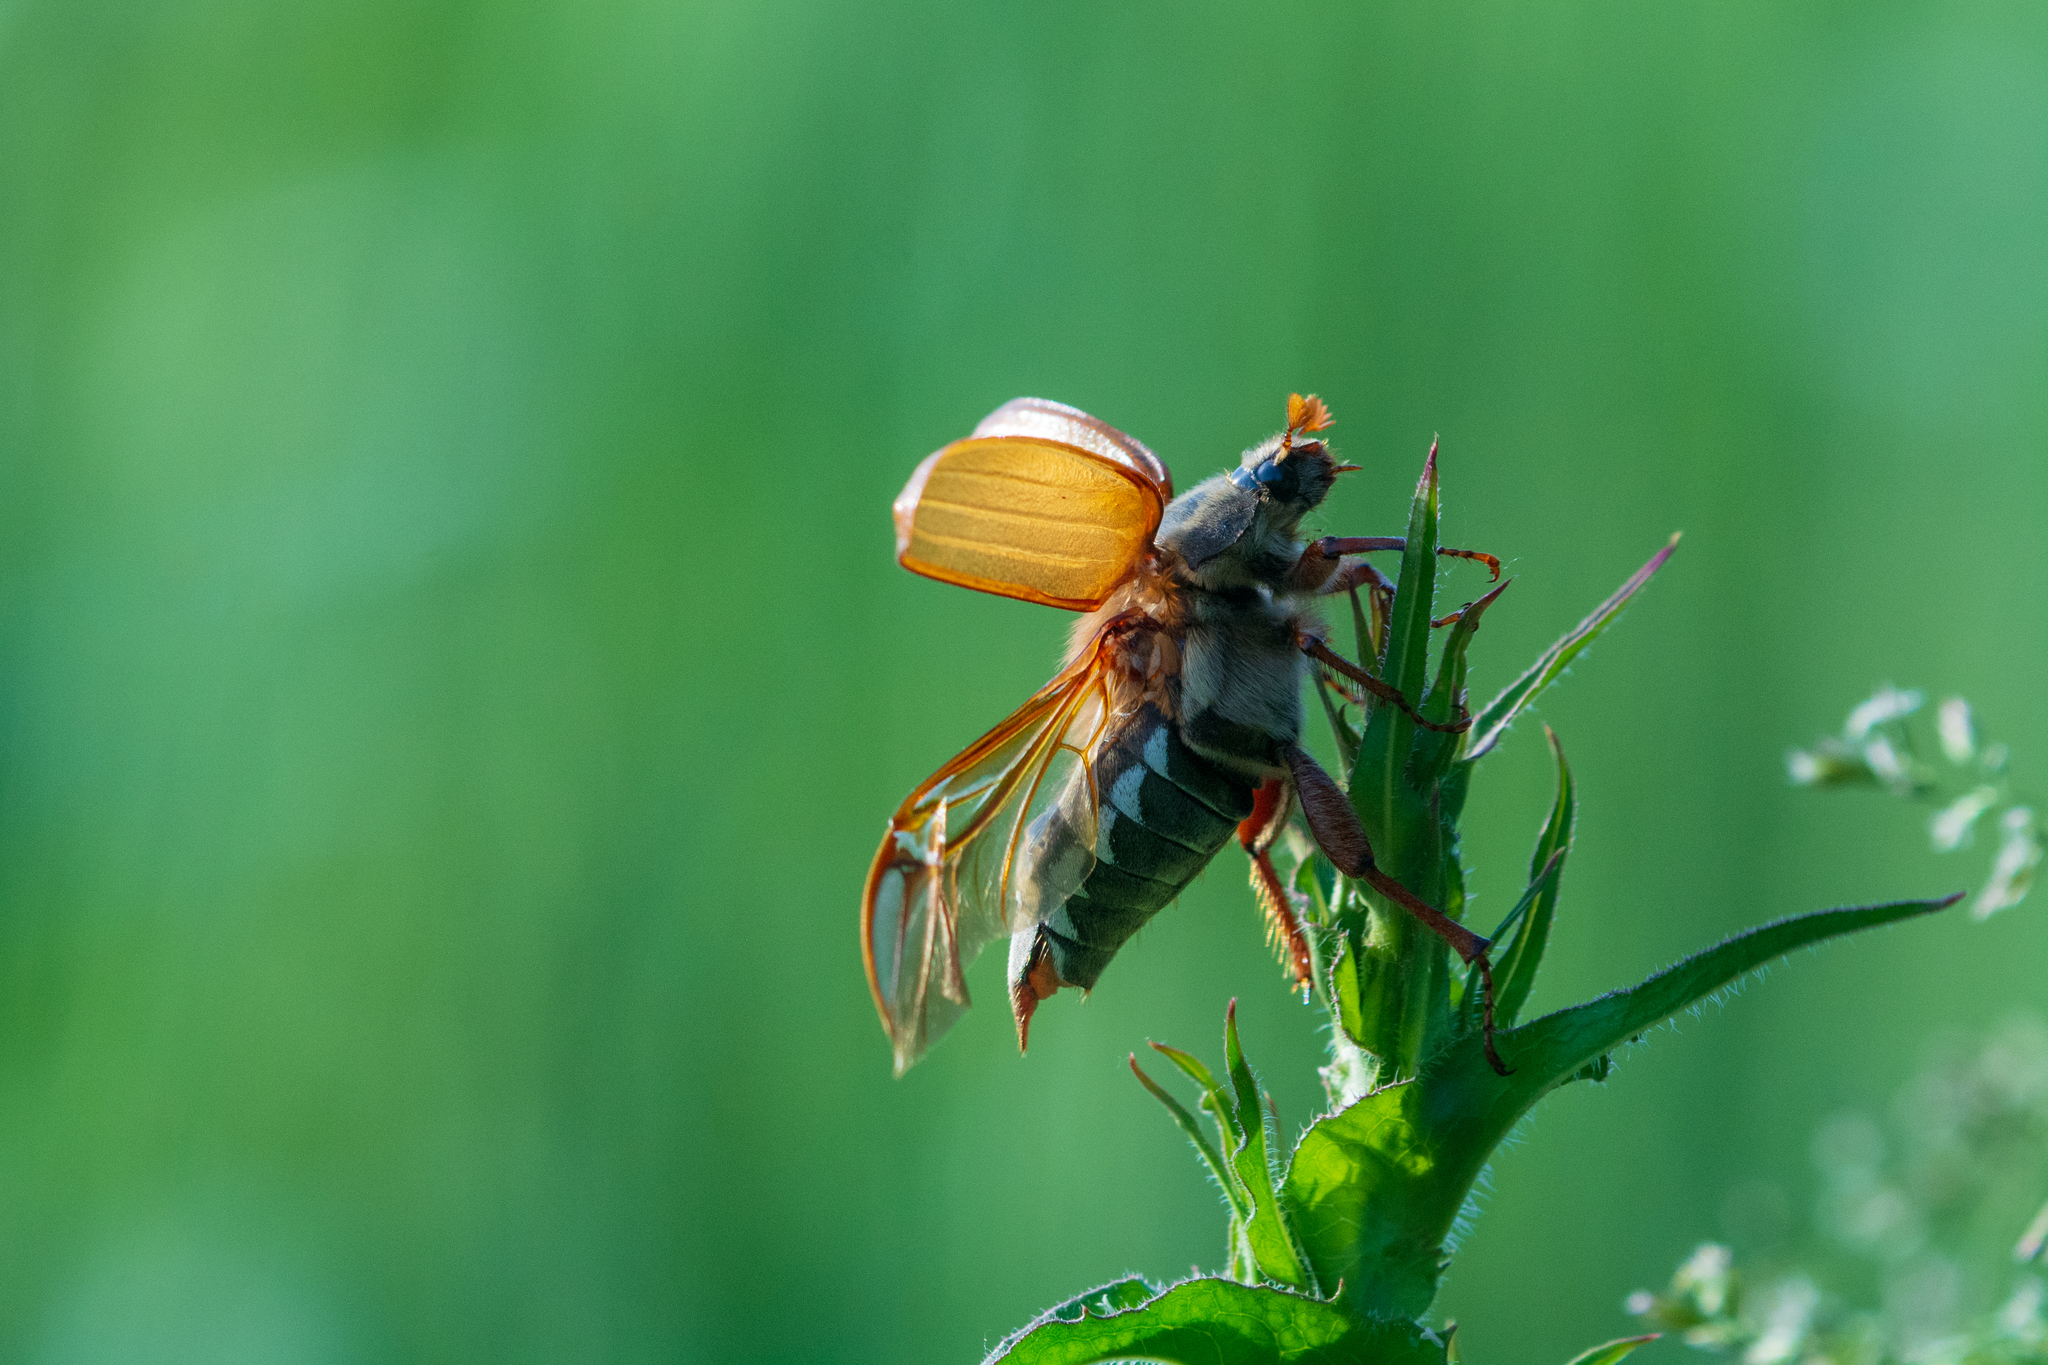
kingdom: Animalia
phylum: Arthropoda
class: Insecta
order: Coleoptera
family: Scarabaeidae
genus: Melolontha
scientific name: Melolontha melolontha
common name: Cockchafer maybeetle
